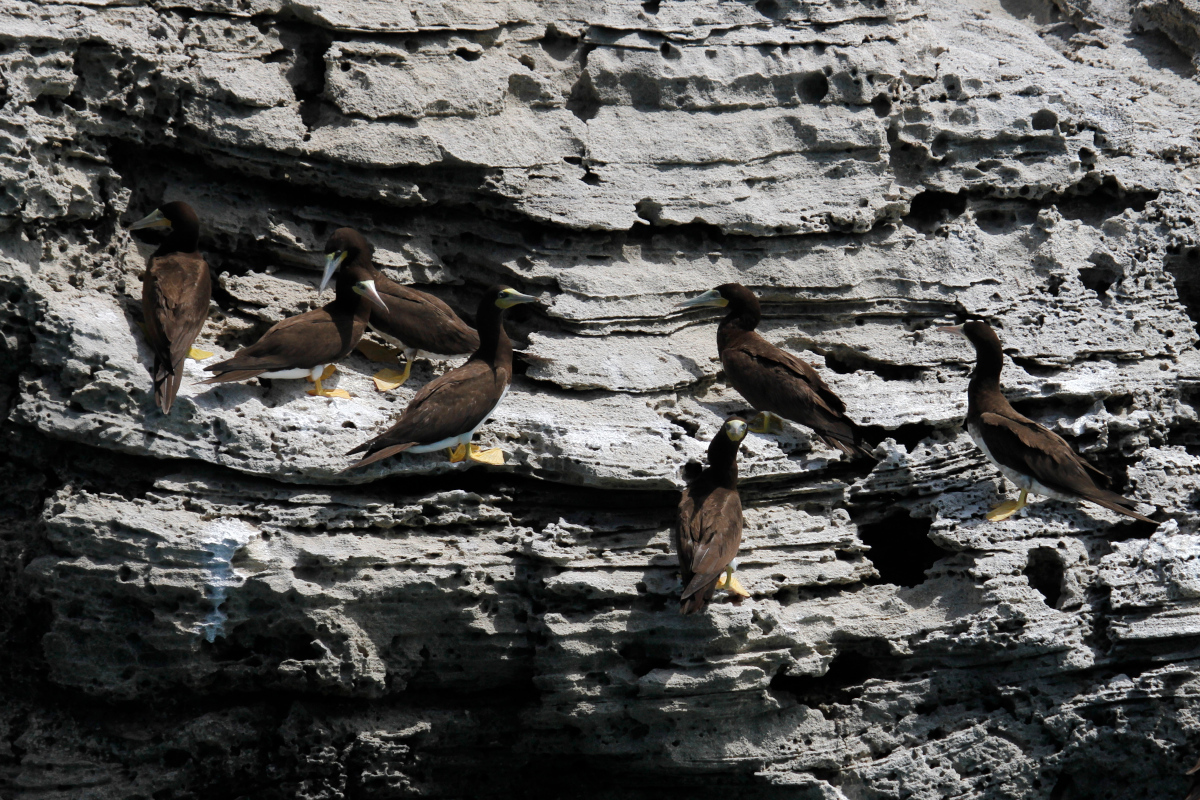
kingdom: Animalia
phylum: Chordata
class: Aves
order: Suliformes
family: Sulidae
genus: Sula
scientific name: Sula leucogaster
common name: Brown booby
